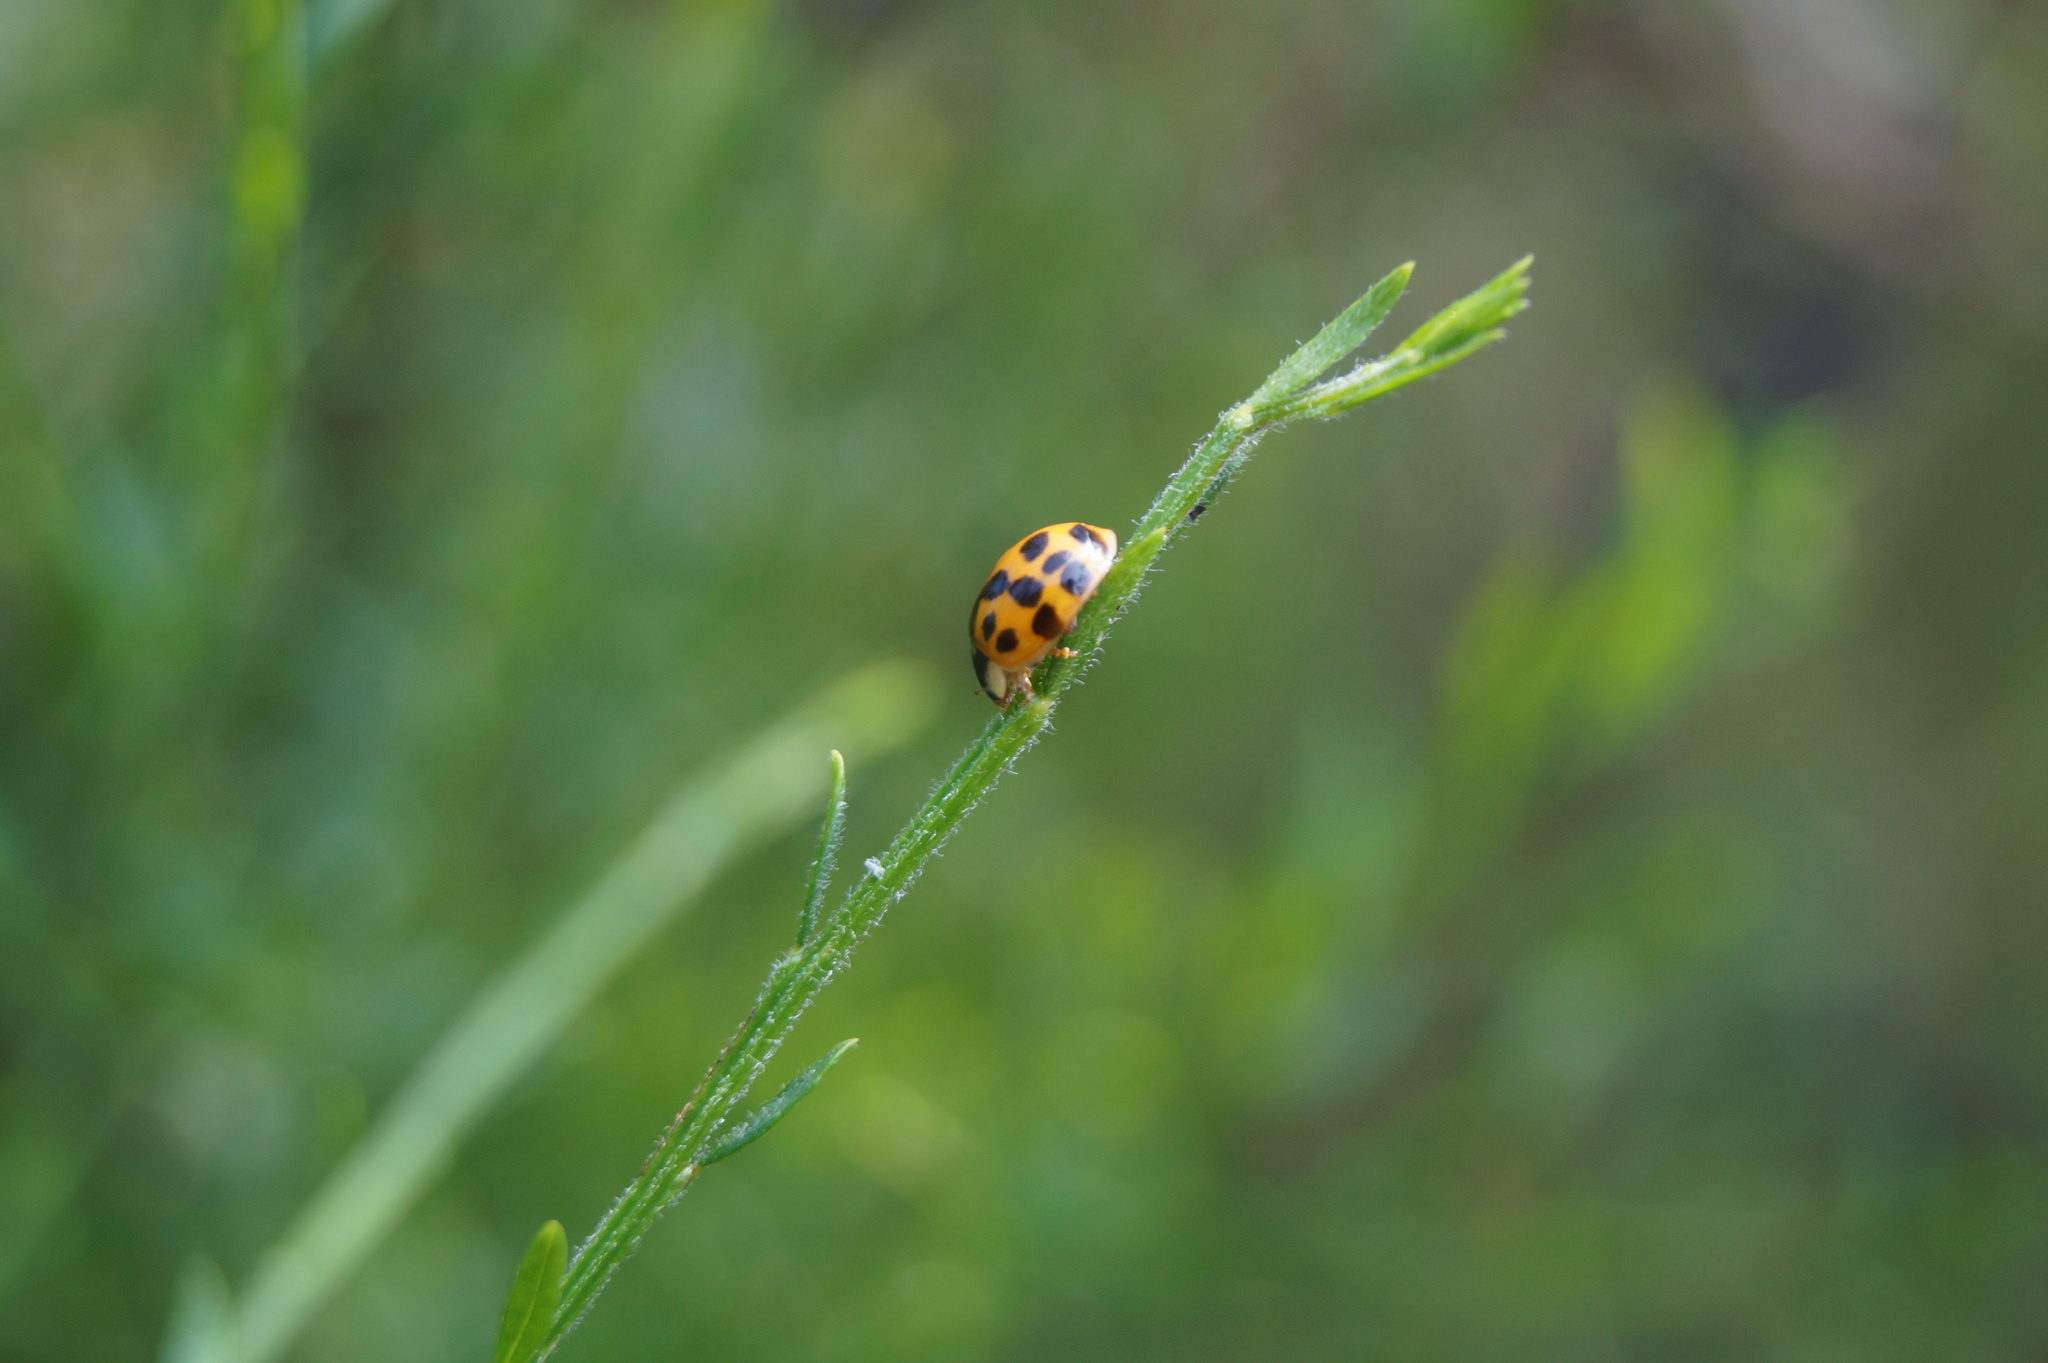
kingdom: Animalia
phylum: Arthropoda
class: Insecta
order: Coleoptera
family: Coccinellidae
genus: Harmonia
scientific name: Harmonia axyridis
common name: Harlequin ladybird
